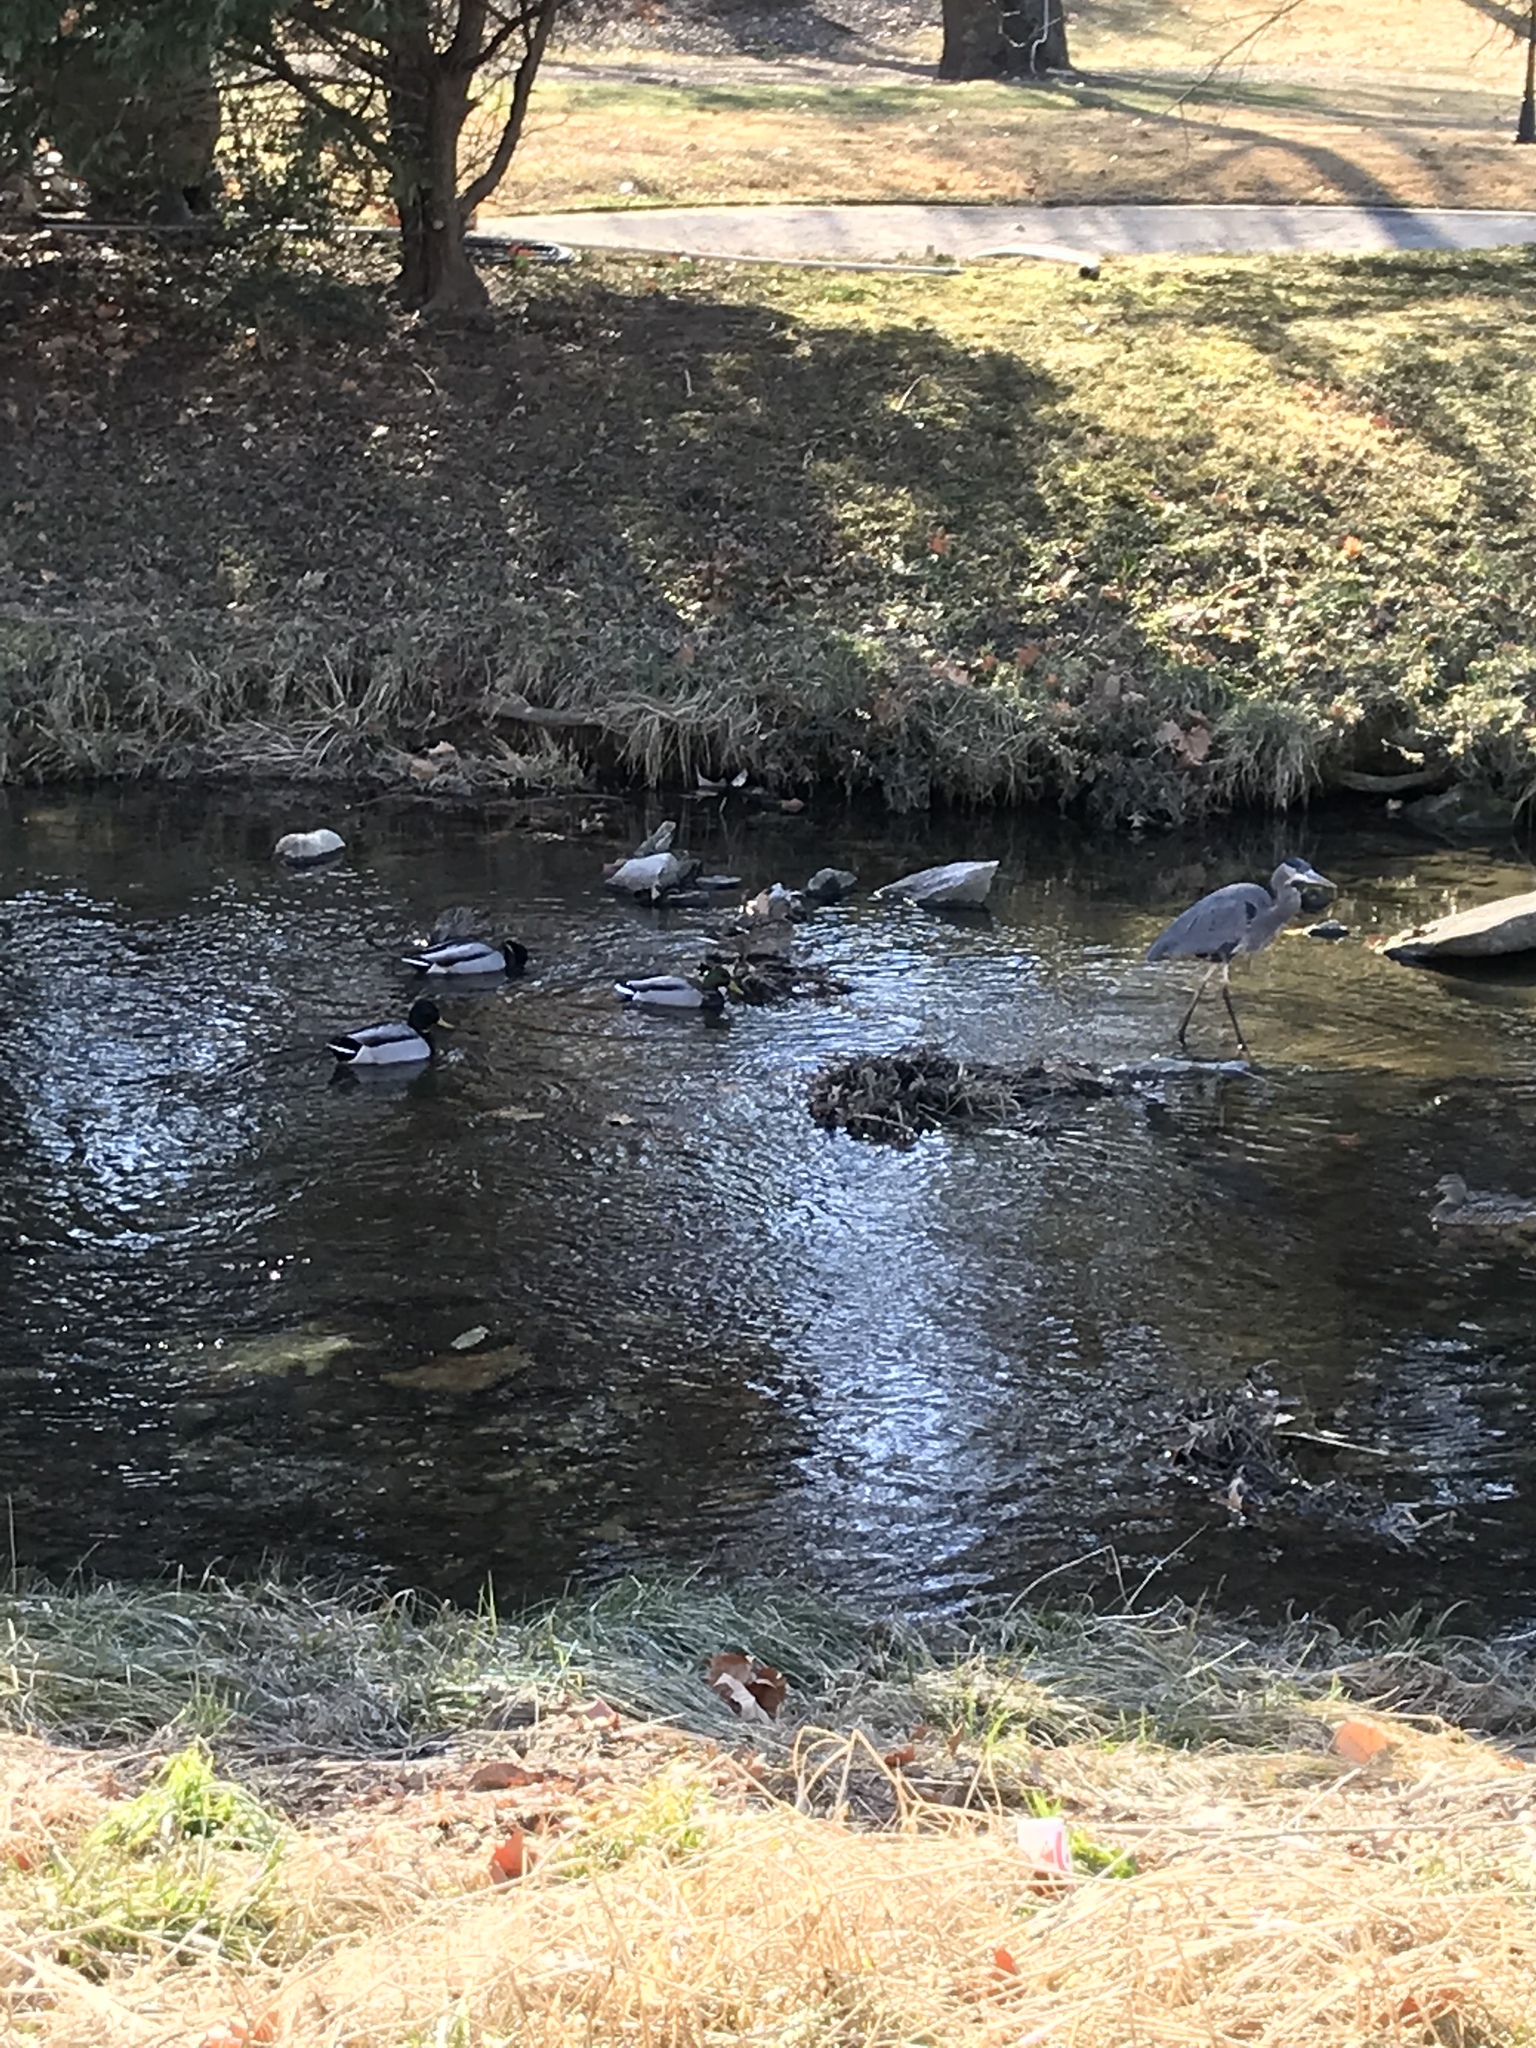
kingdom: Animalia
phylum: Chordata
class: Aves
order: Pelecaniformes
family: Ardeidae
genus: Ardea
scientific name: Ardea herodias
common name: Great blue heron
